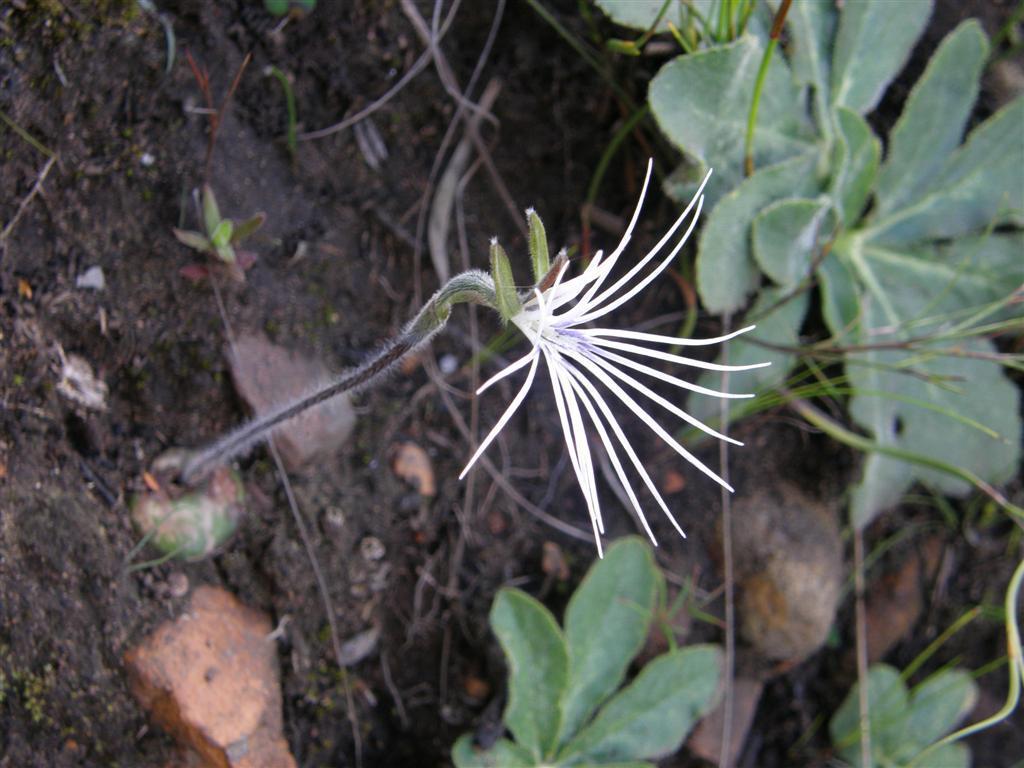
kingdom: Plantae
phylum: Tracheophyta
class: Liliopsida
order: Asparagales
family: Orchidaceae
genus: Holothrix
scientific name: Holothrix burmanniana
